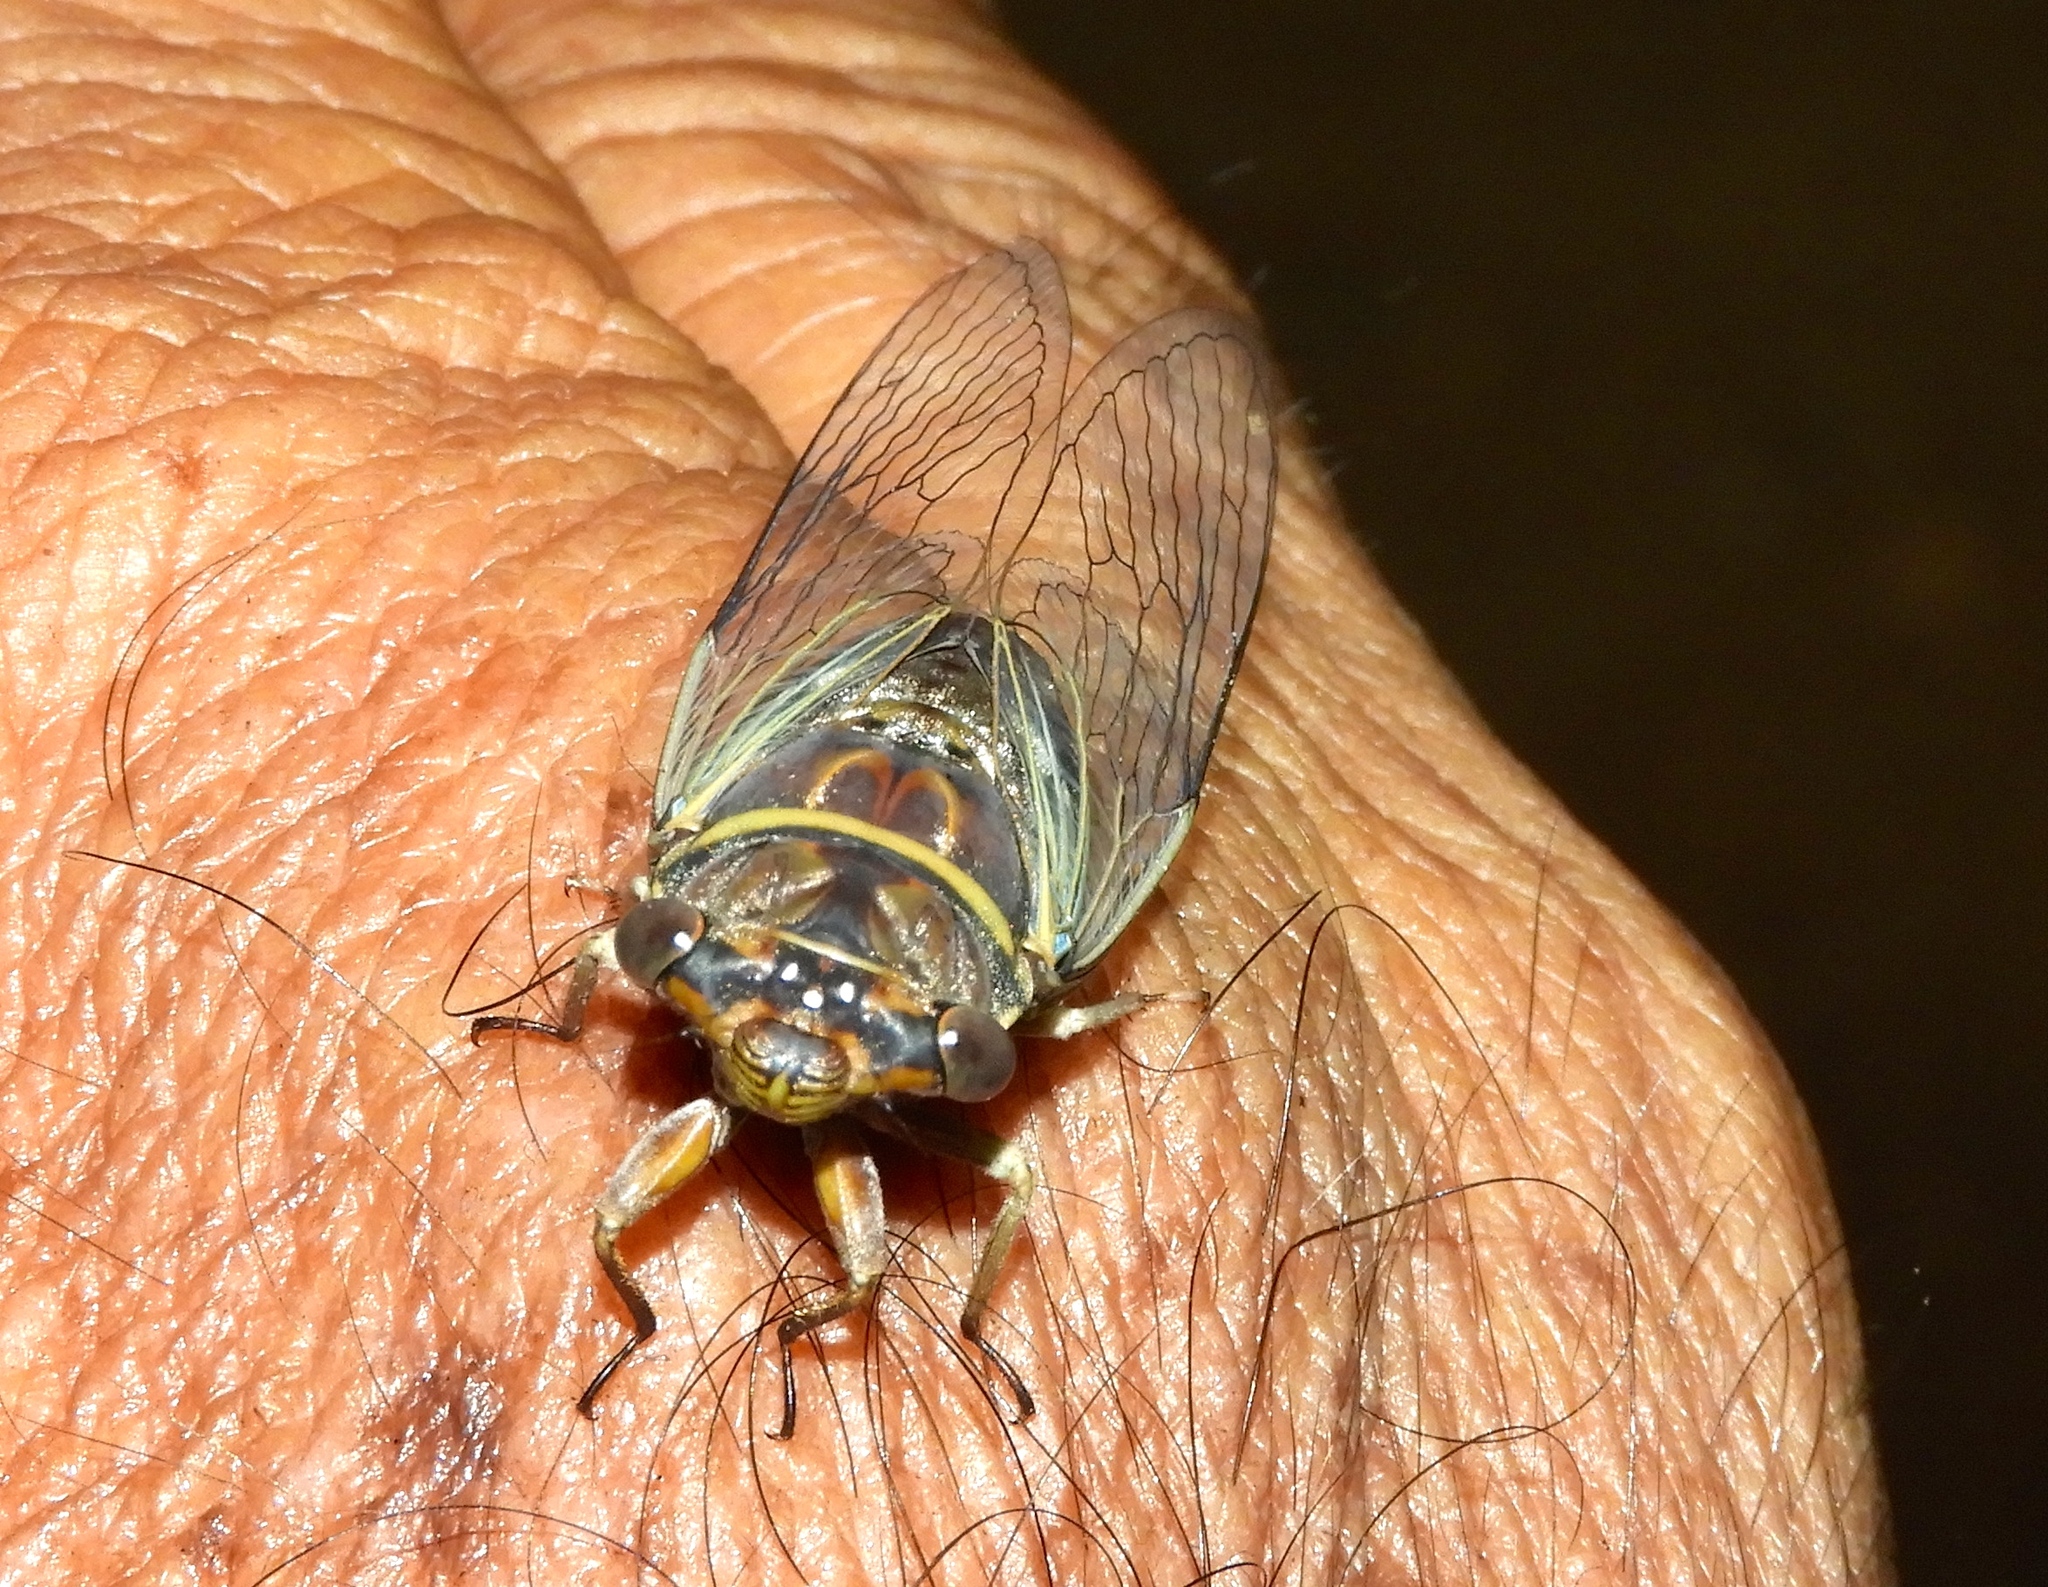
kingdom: Animalia
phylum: Arthropoda
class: Insecta
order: Hemiptera
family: Cicadidae
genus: Diceroprocta
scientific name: Diceroprocta tepicana
